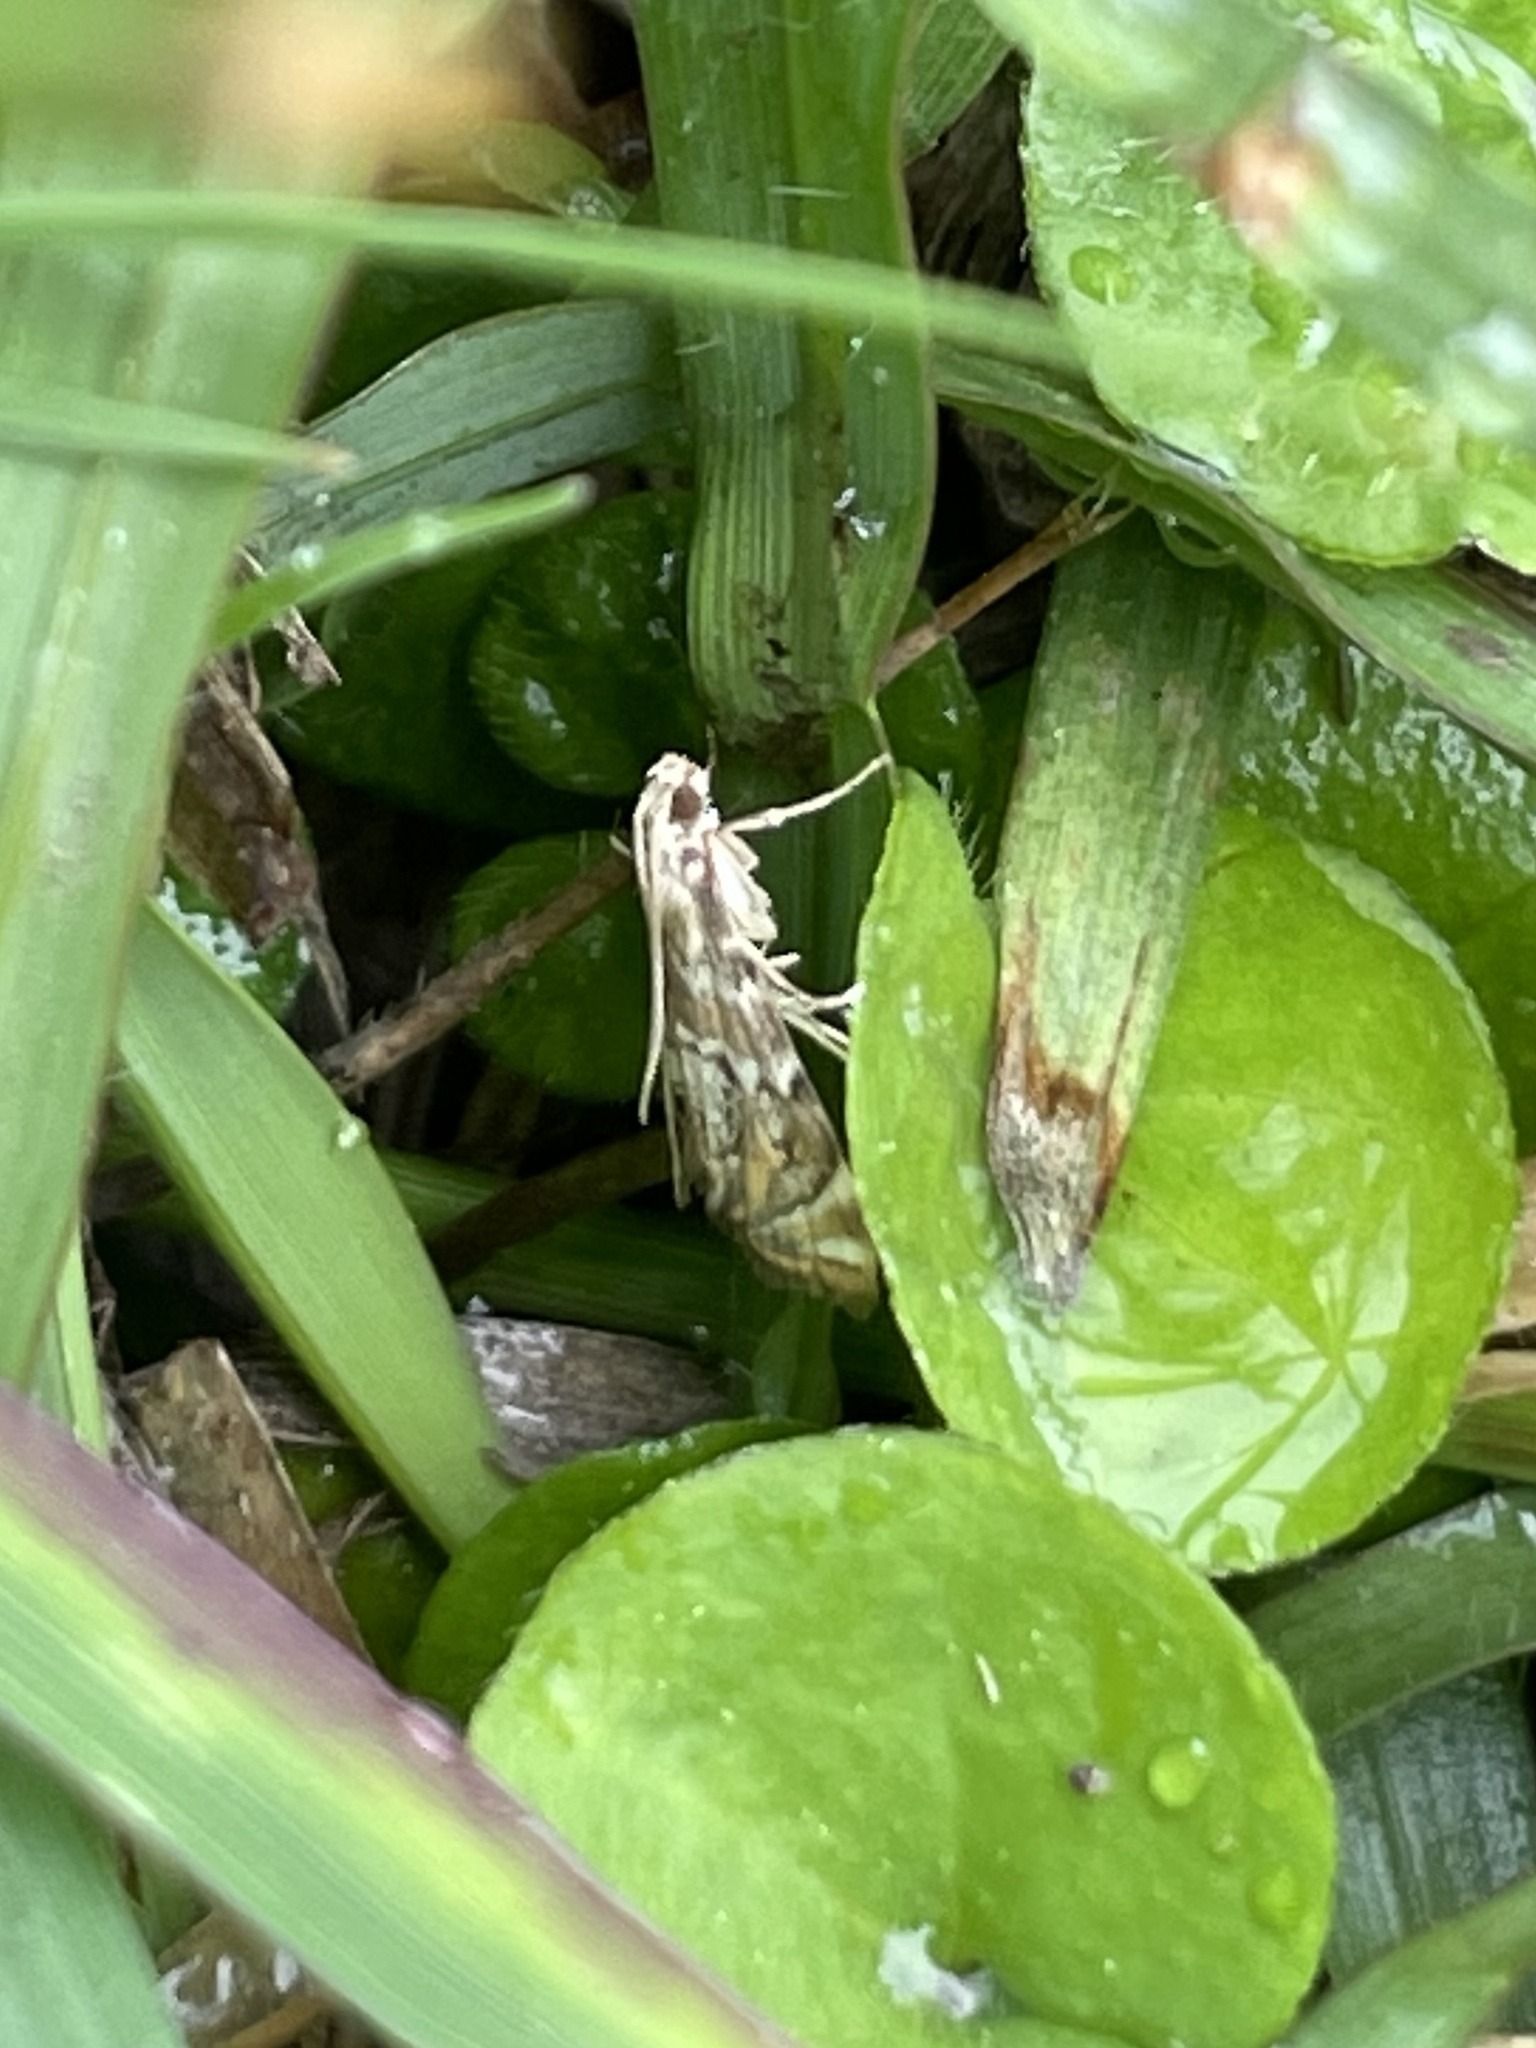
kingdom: Animalia
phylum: Arthropoda
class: Insecta
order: Lepidoptera
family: Crambidae
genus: Petrophila
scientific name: Petrophila
